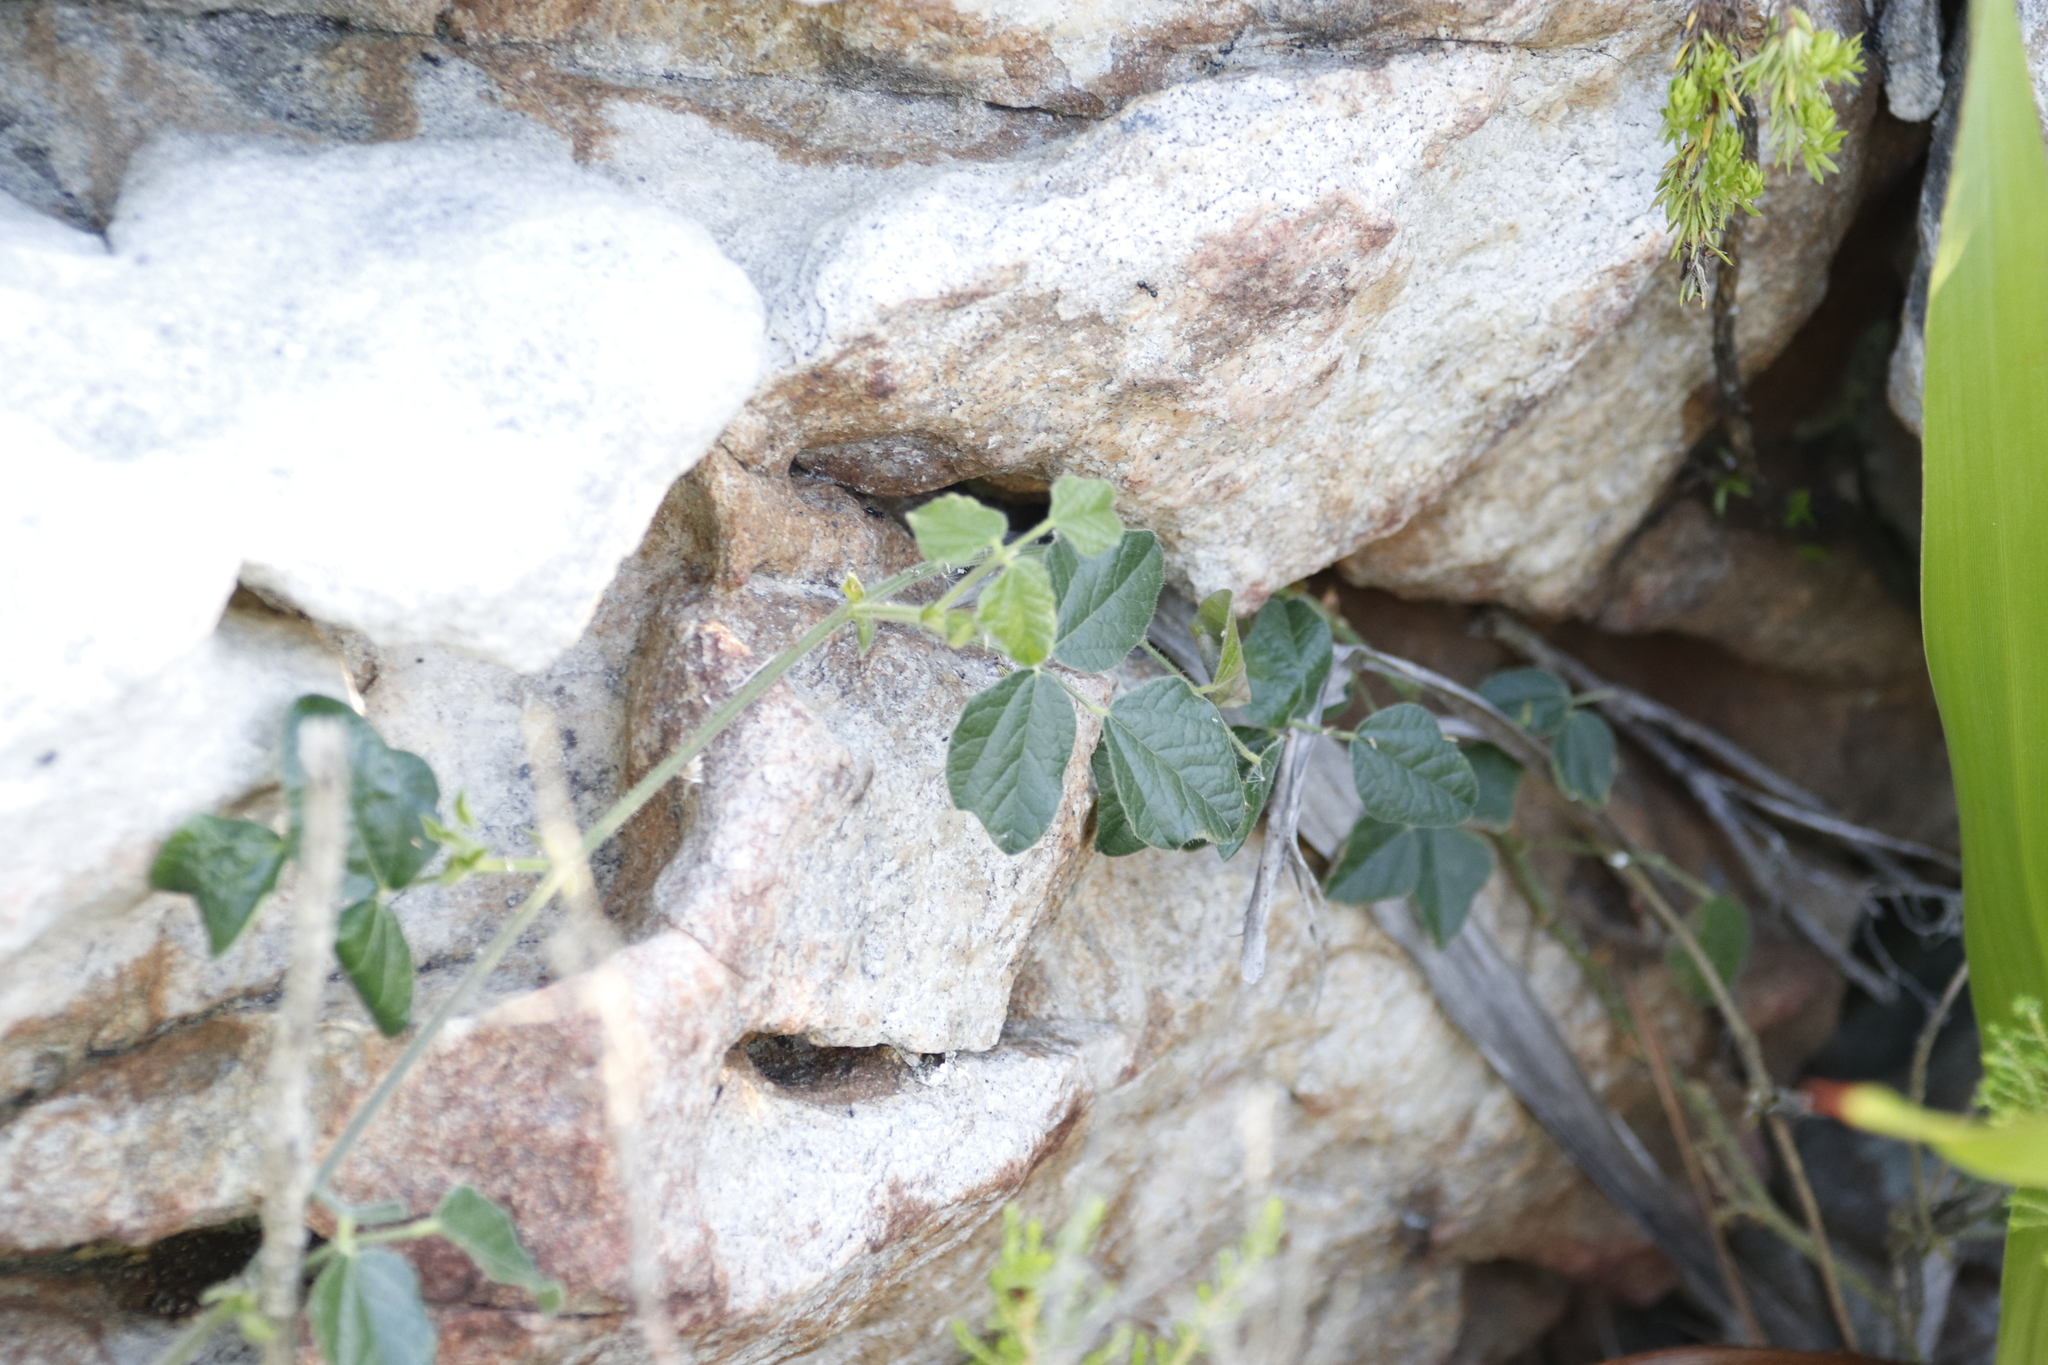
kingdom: Plantae
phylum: Tracheophyta
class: Magnoliopsida
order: Fabales
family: Fabaceae
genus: Bolusafra
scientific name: Bolusafra bituminosa
